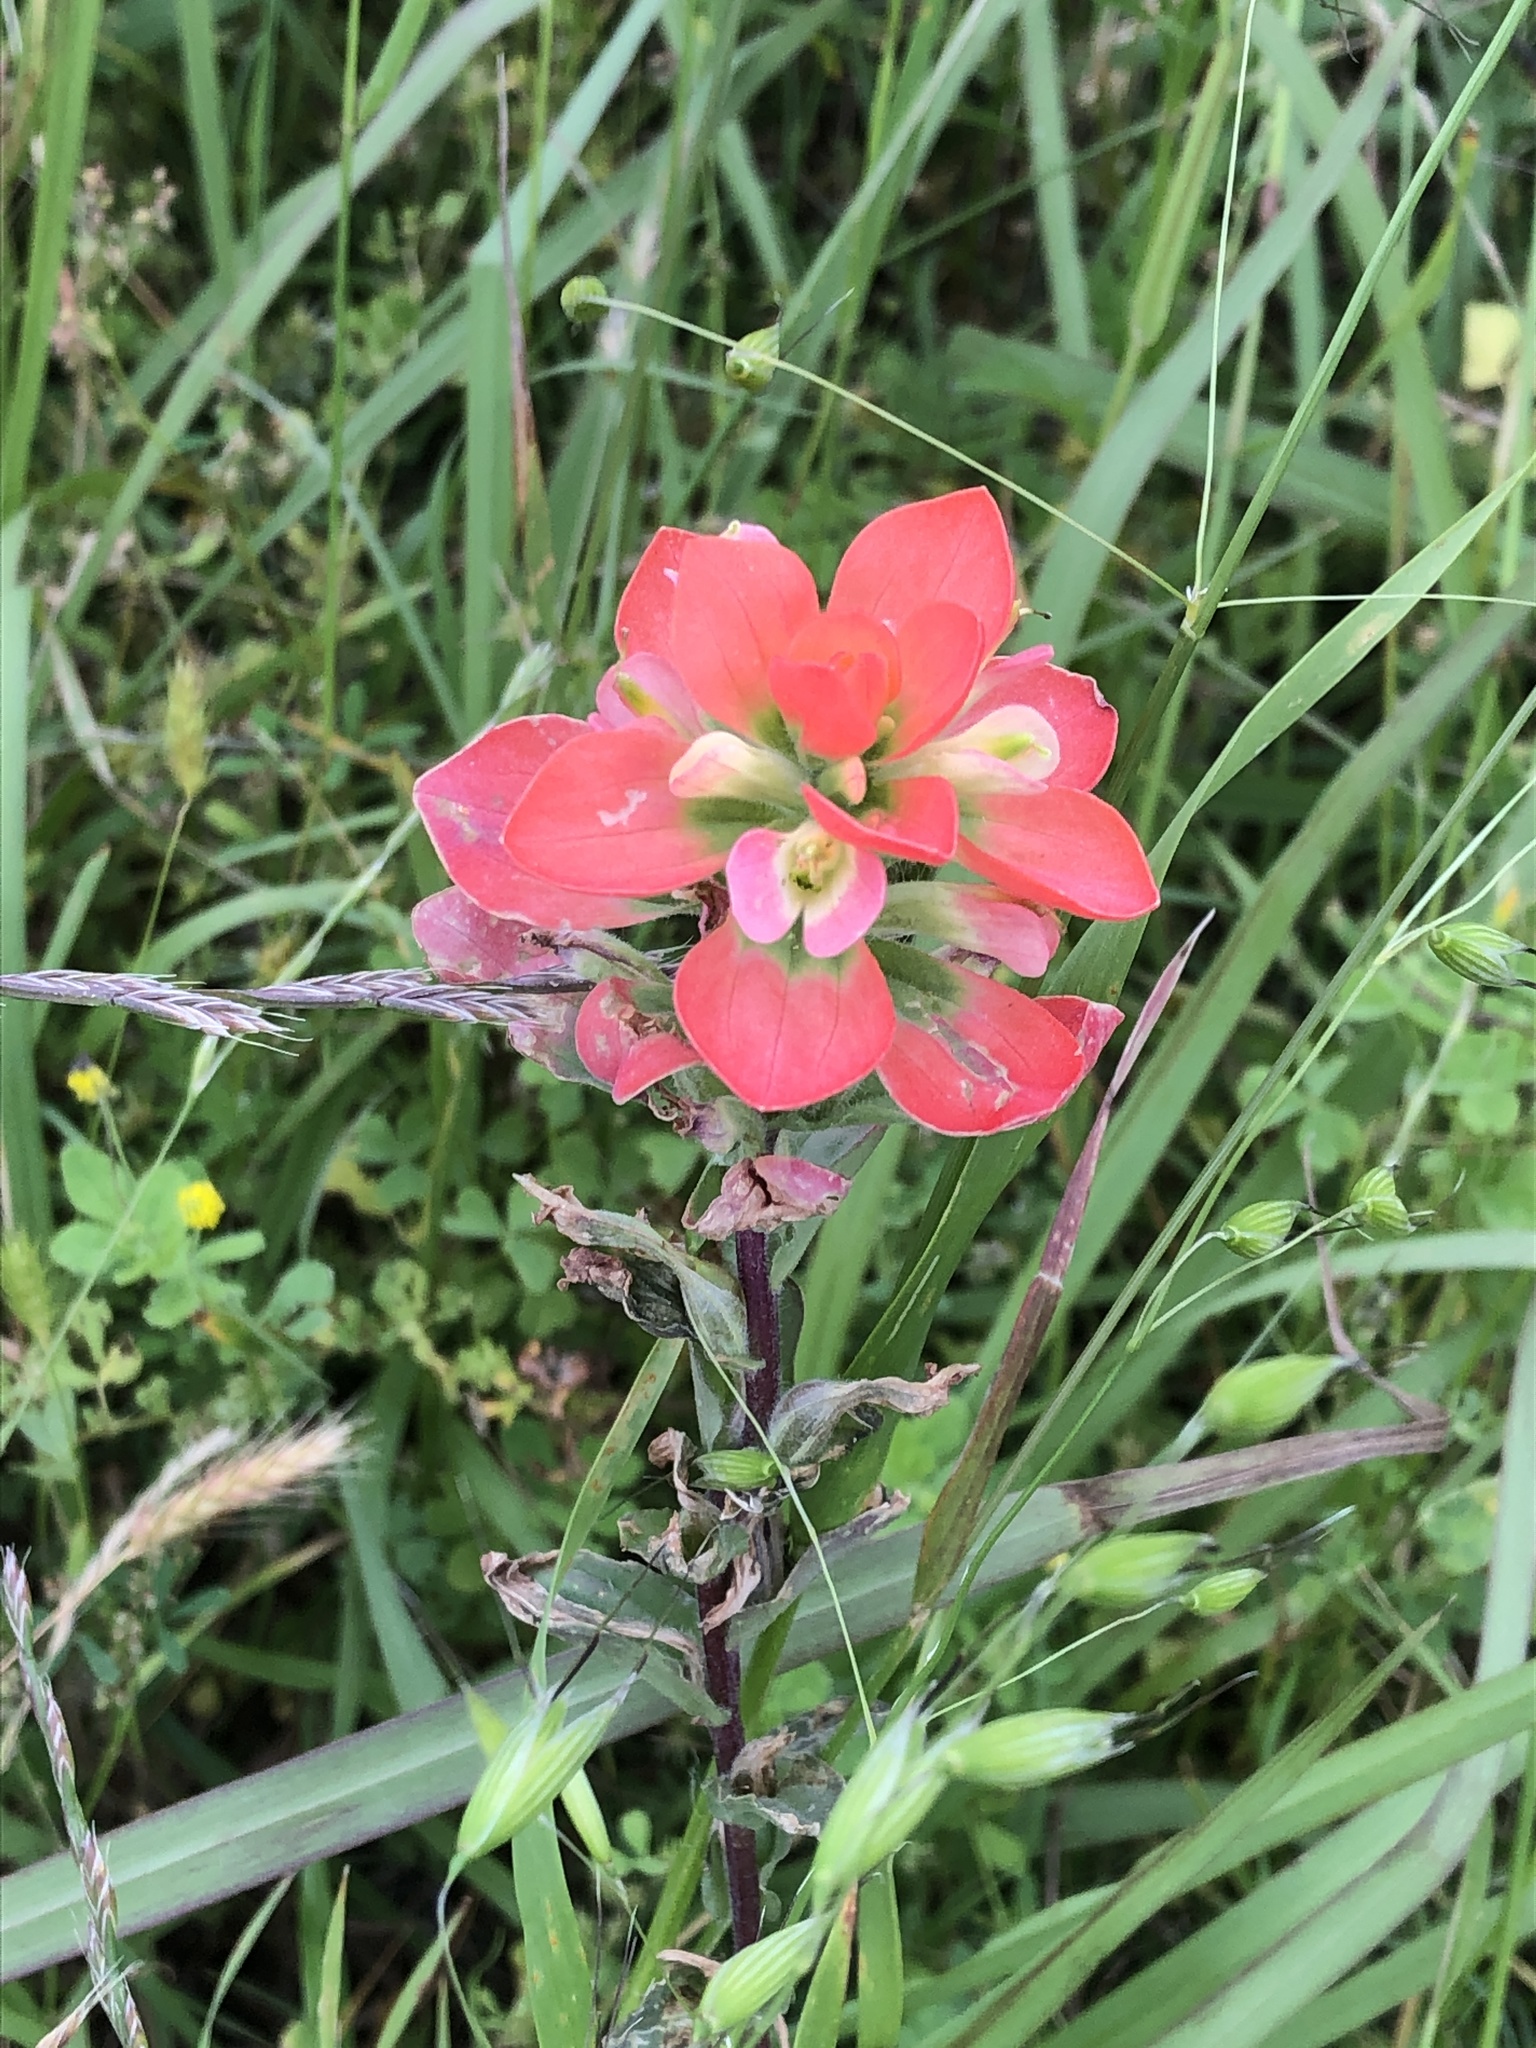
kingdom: Plantae
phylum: Tracheophyta
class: Magnoliopsida
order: Lamiales
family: Orobanchaceae
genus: Castilleja
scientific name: Castilleja indivisa
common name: Texas paintbrush
